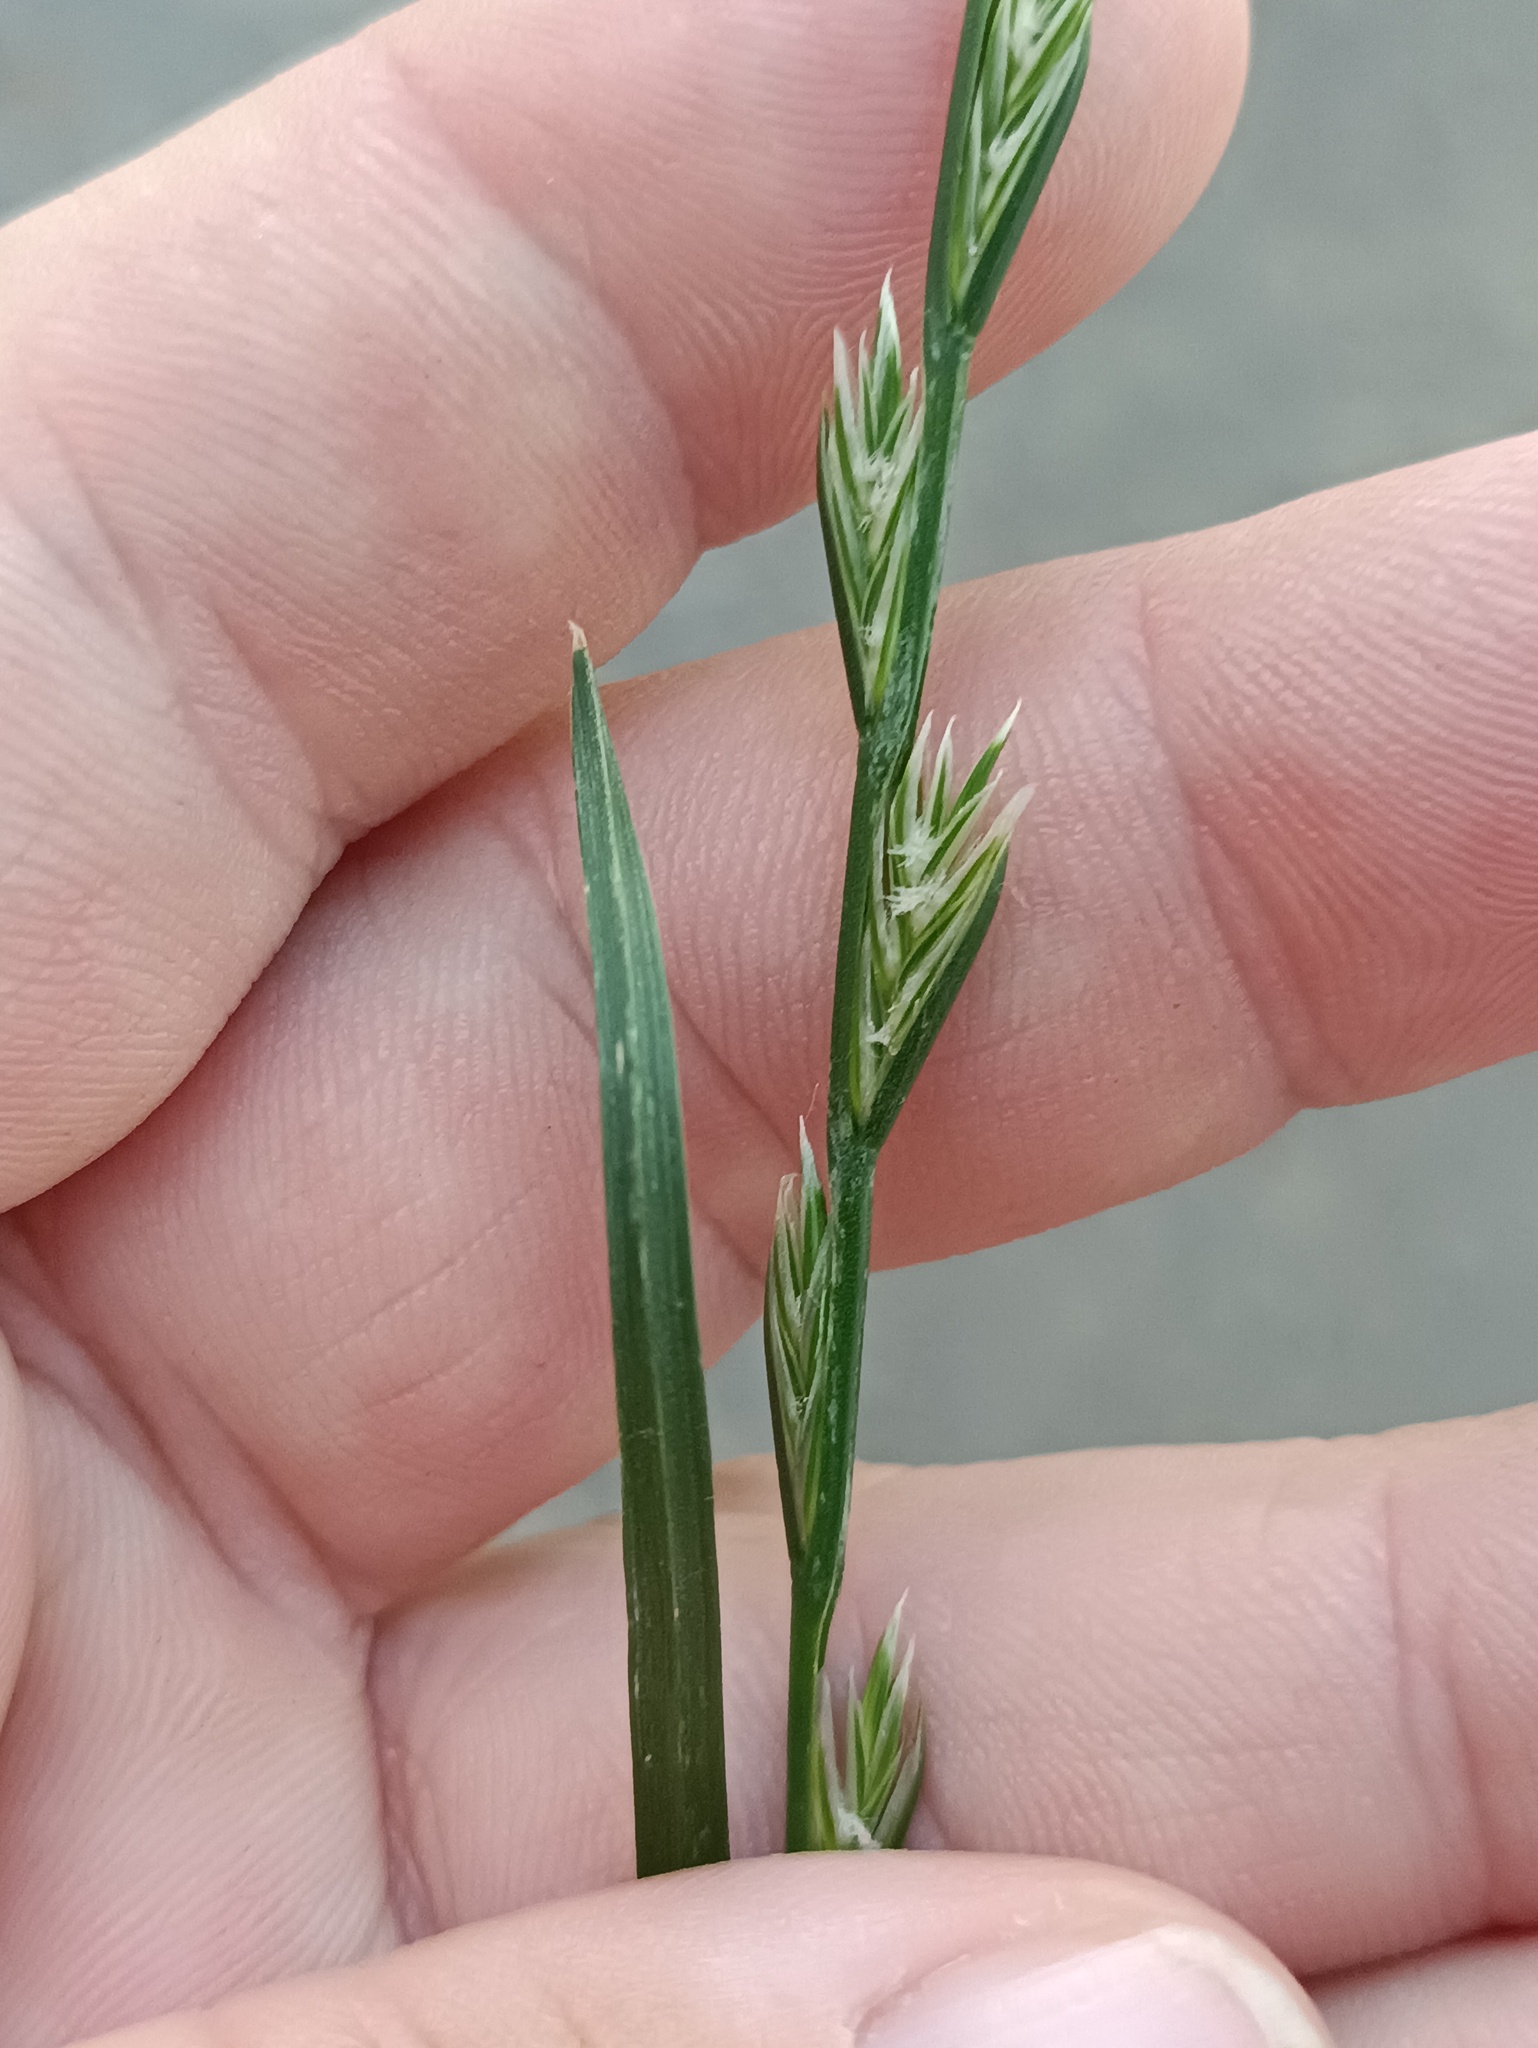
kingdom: Plantae
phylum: Tracheophyta
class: Liliopsida
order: Poales
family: Poaceae
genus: Lolium
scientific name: Lolium perenne
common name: Perennial ryegrass
